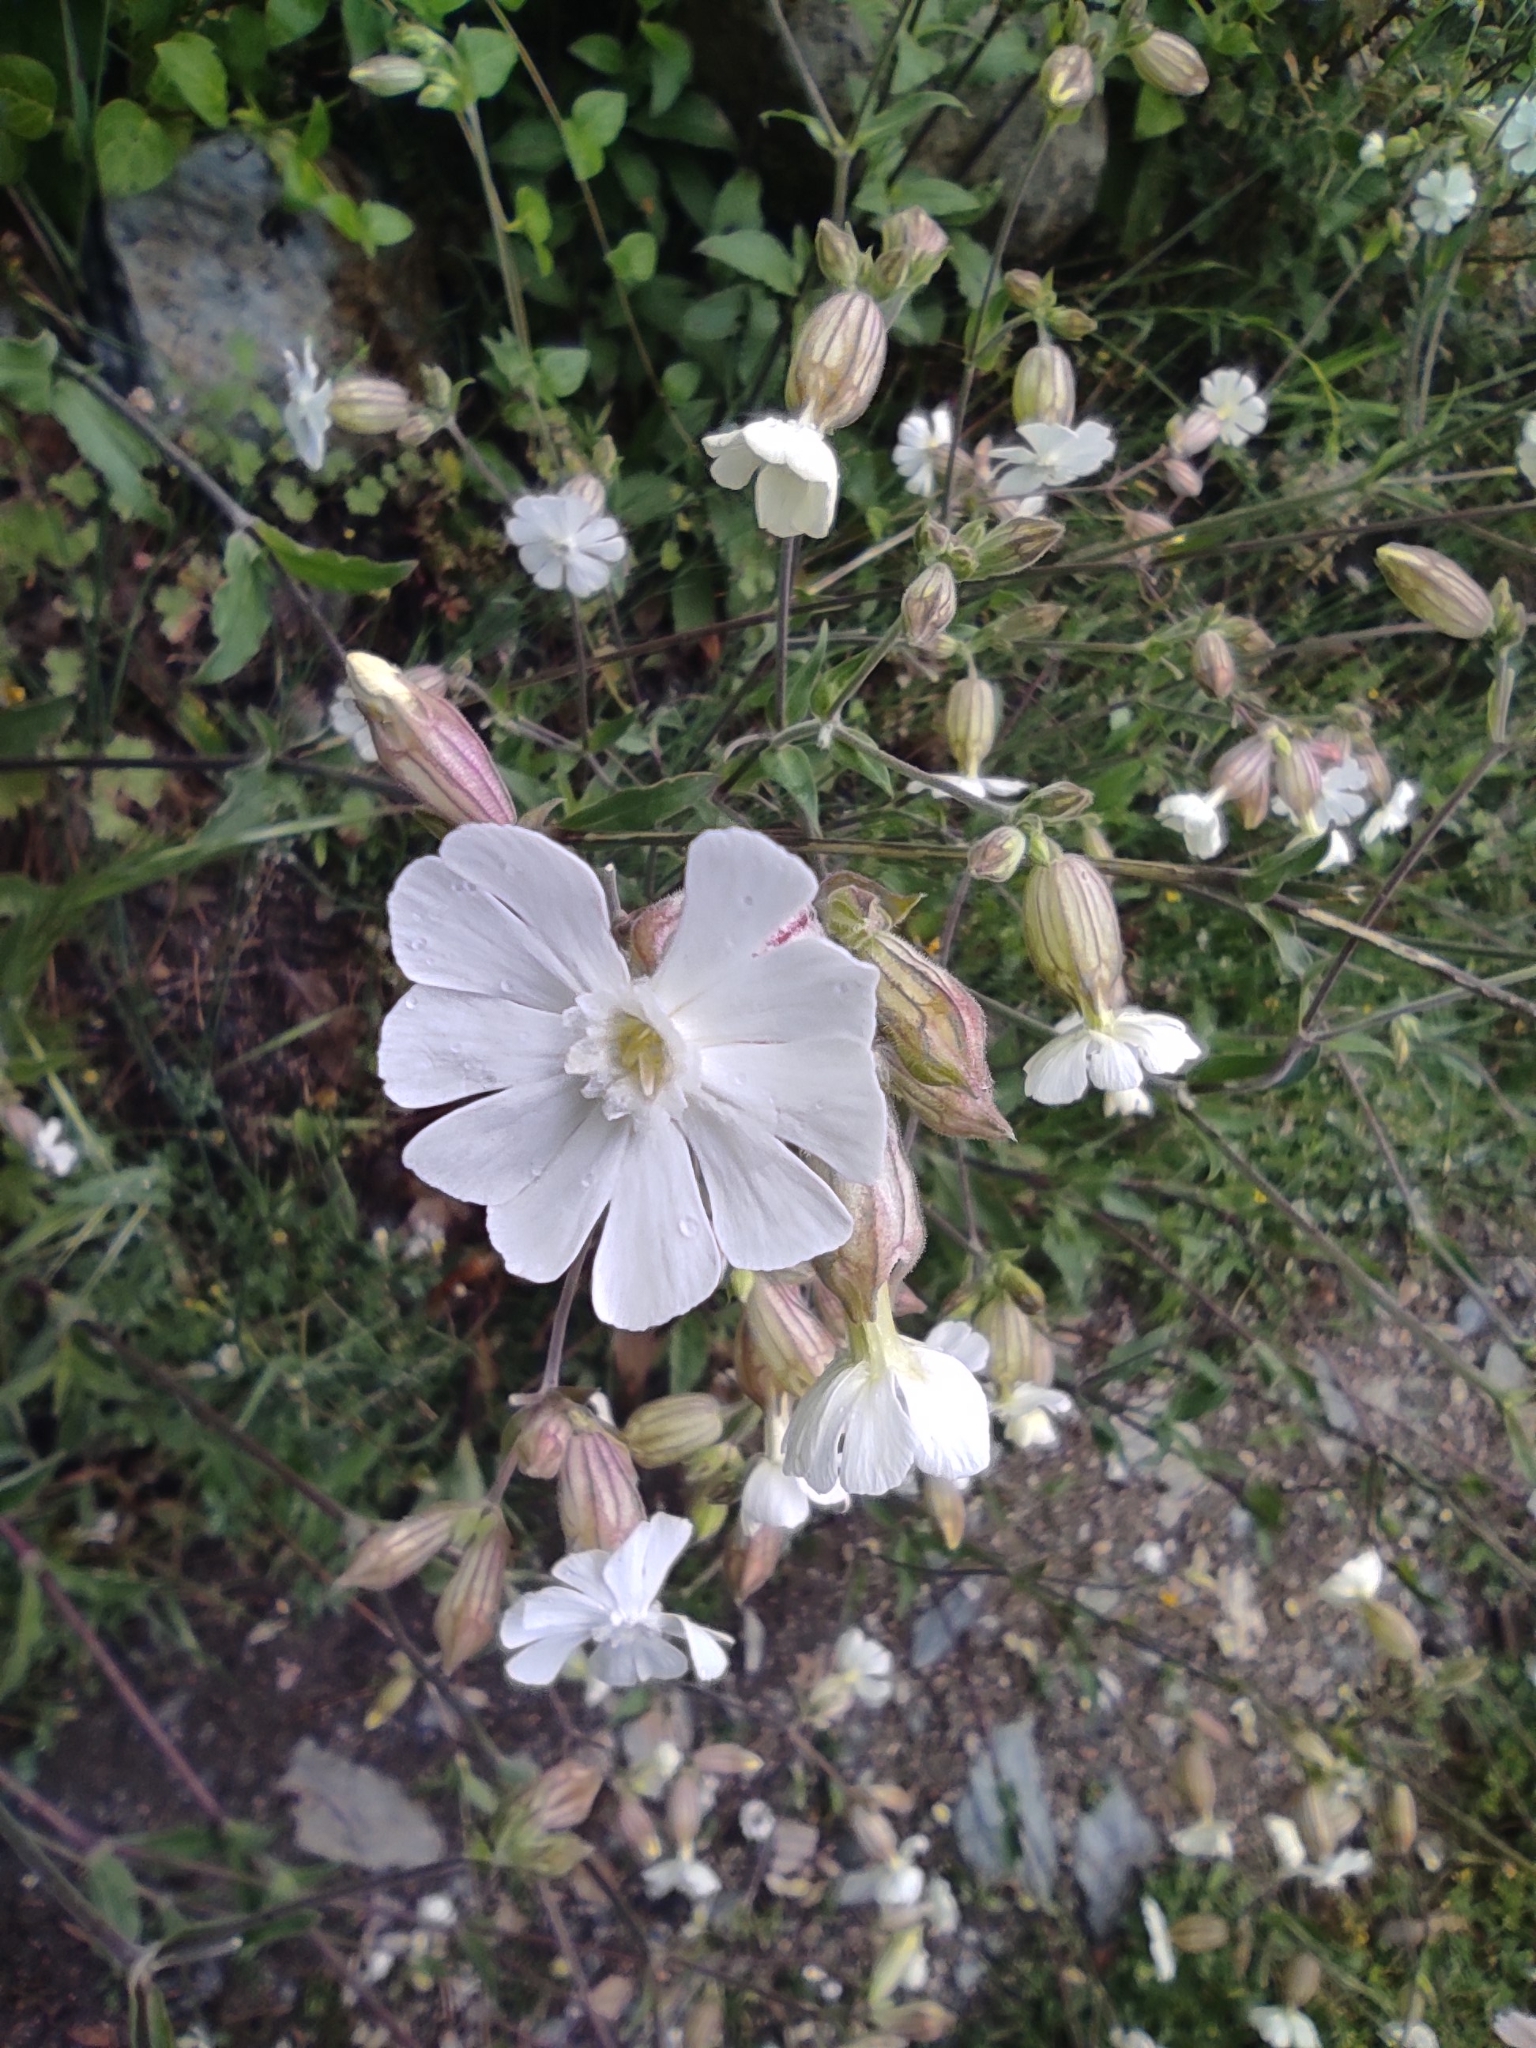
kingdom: Plantae
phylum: Tracheophyta
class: Magnoliopsida
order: Caryophyllales
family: Caryophyllaceae
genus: Silene
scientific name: Silene latifolia
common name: White campion
